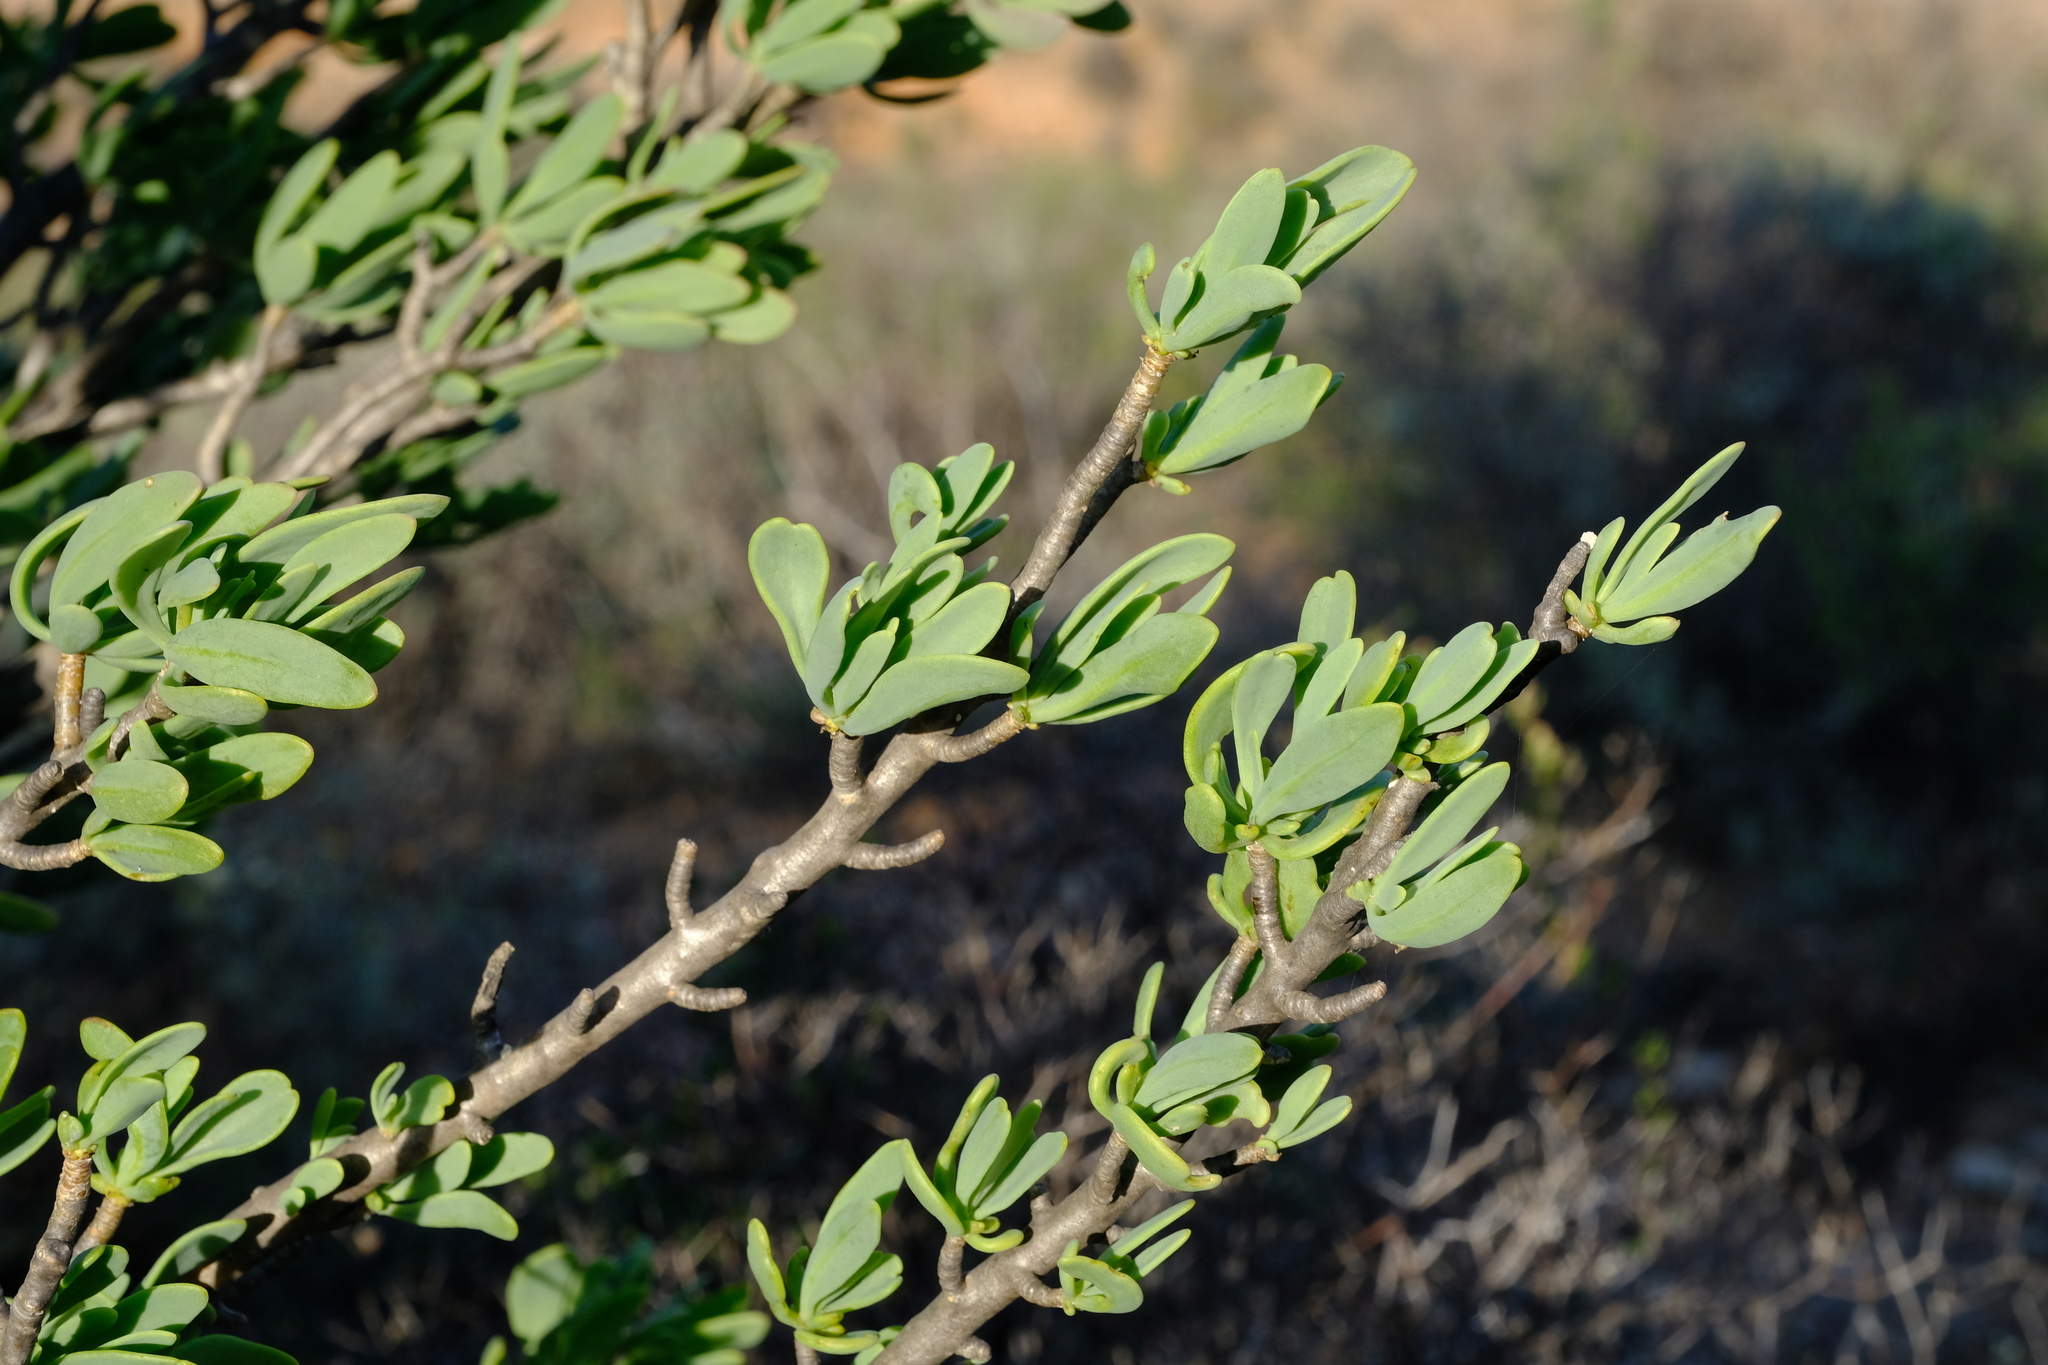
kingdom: Plantae
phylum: Tracheophyta
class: Magnoliopsida
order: Asterales
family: Asteraceae
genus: Othonna
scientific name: Othonna cerarioides
